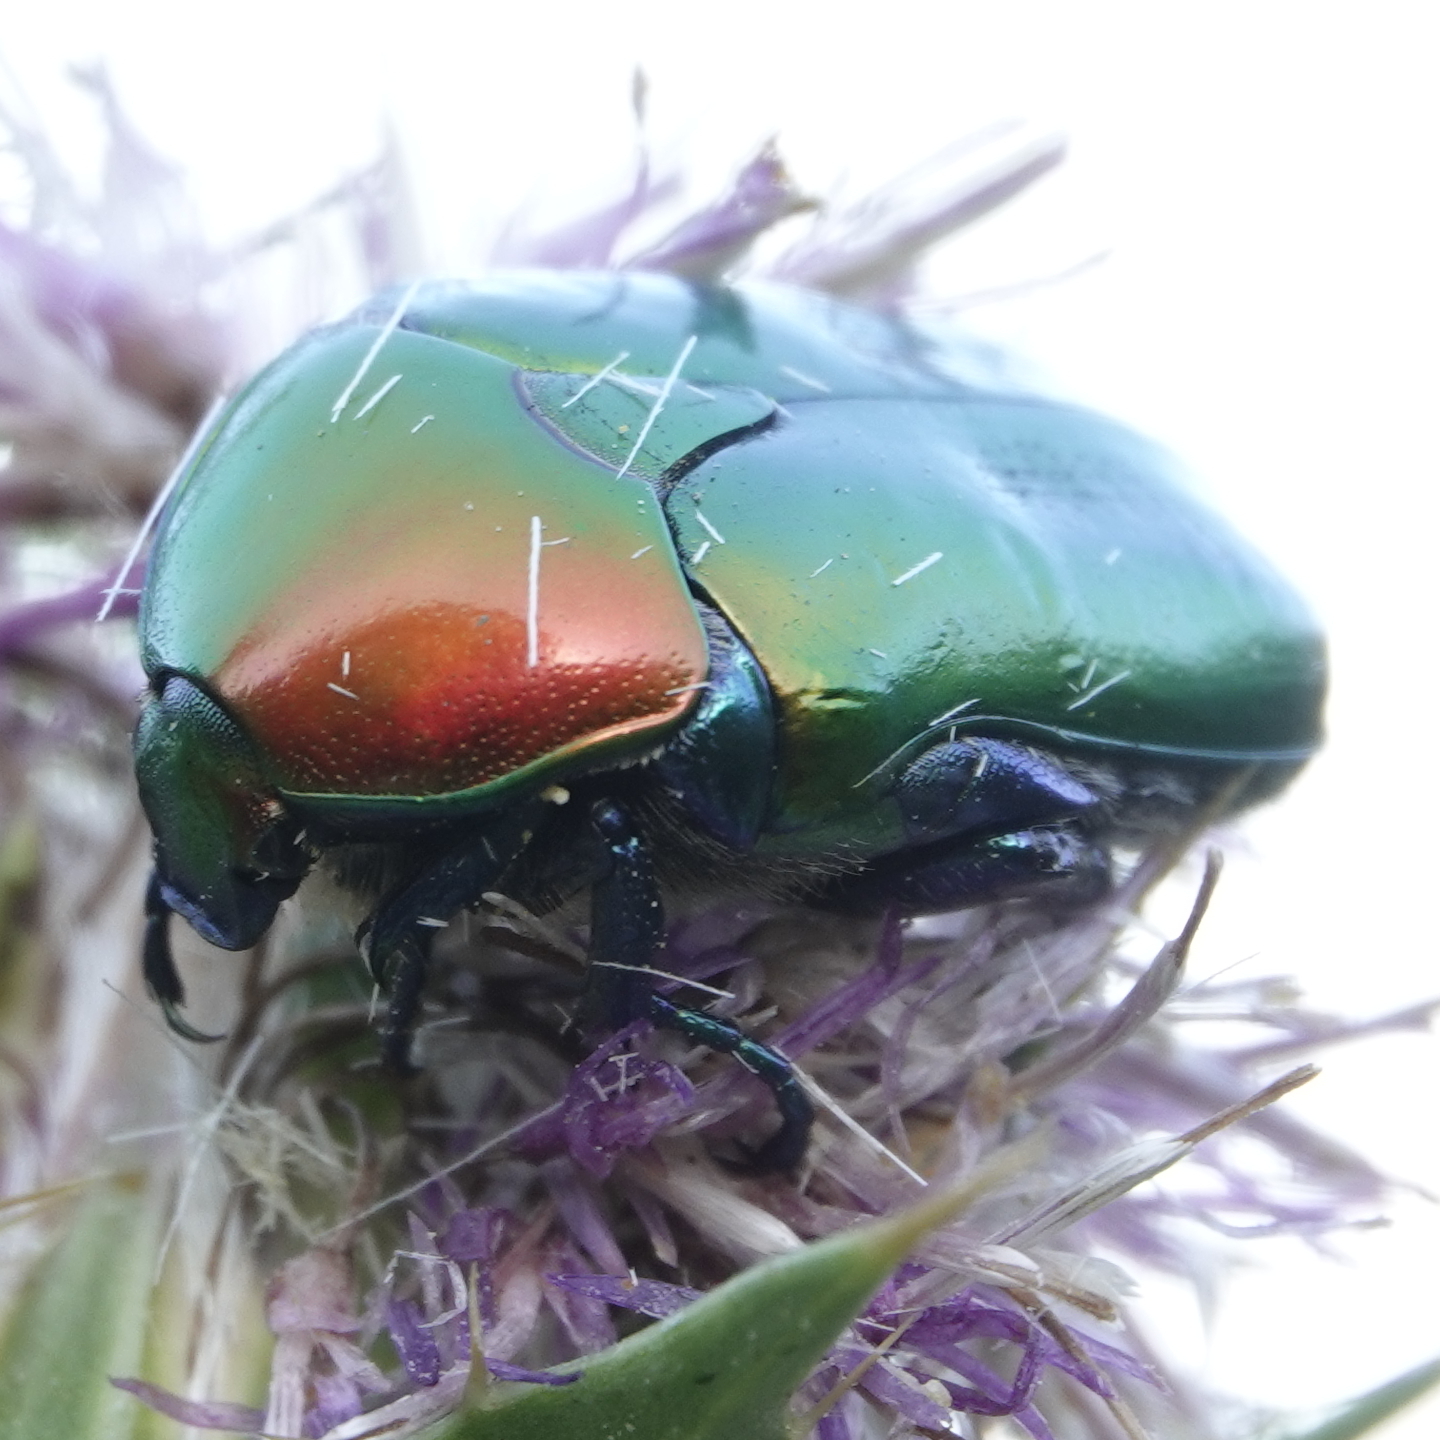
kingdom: Animalia
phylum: Arthropoda
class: Insecta
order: Coleoptera
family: Scarabaeidae
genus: Protaetia
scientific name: Protaetia cuprea
